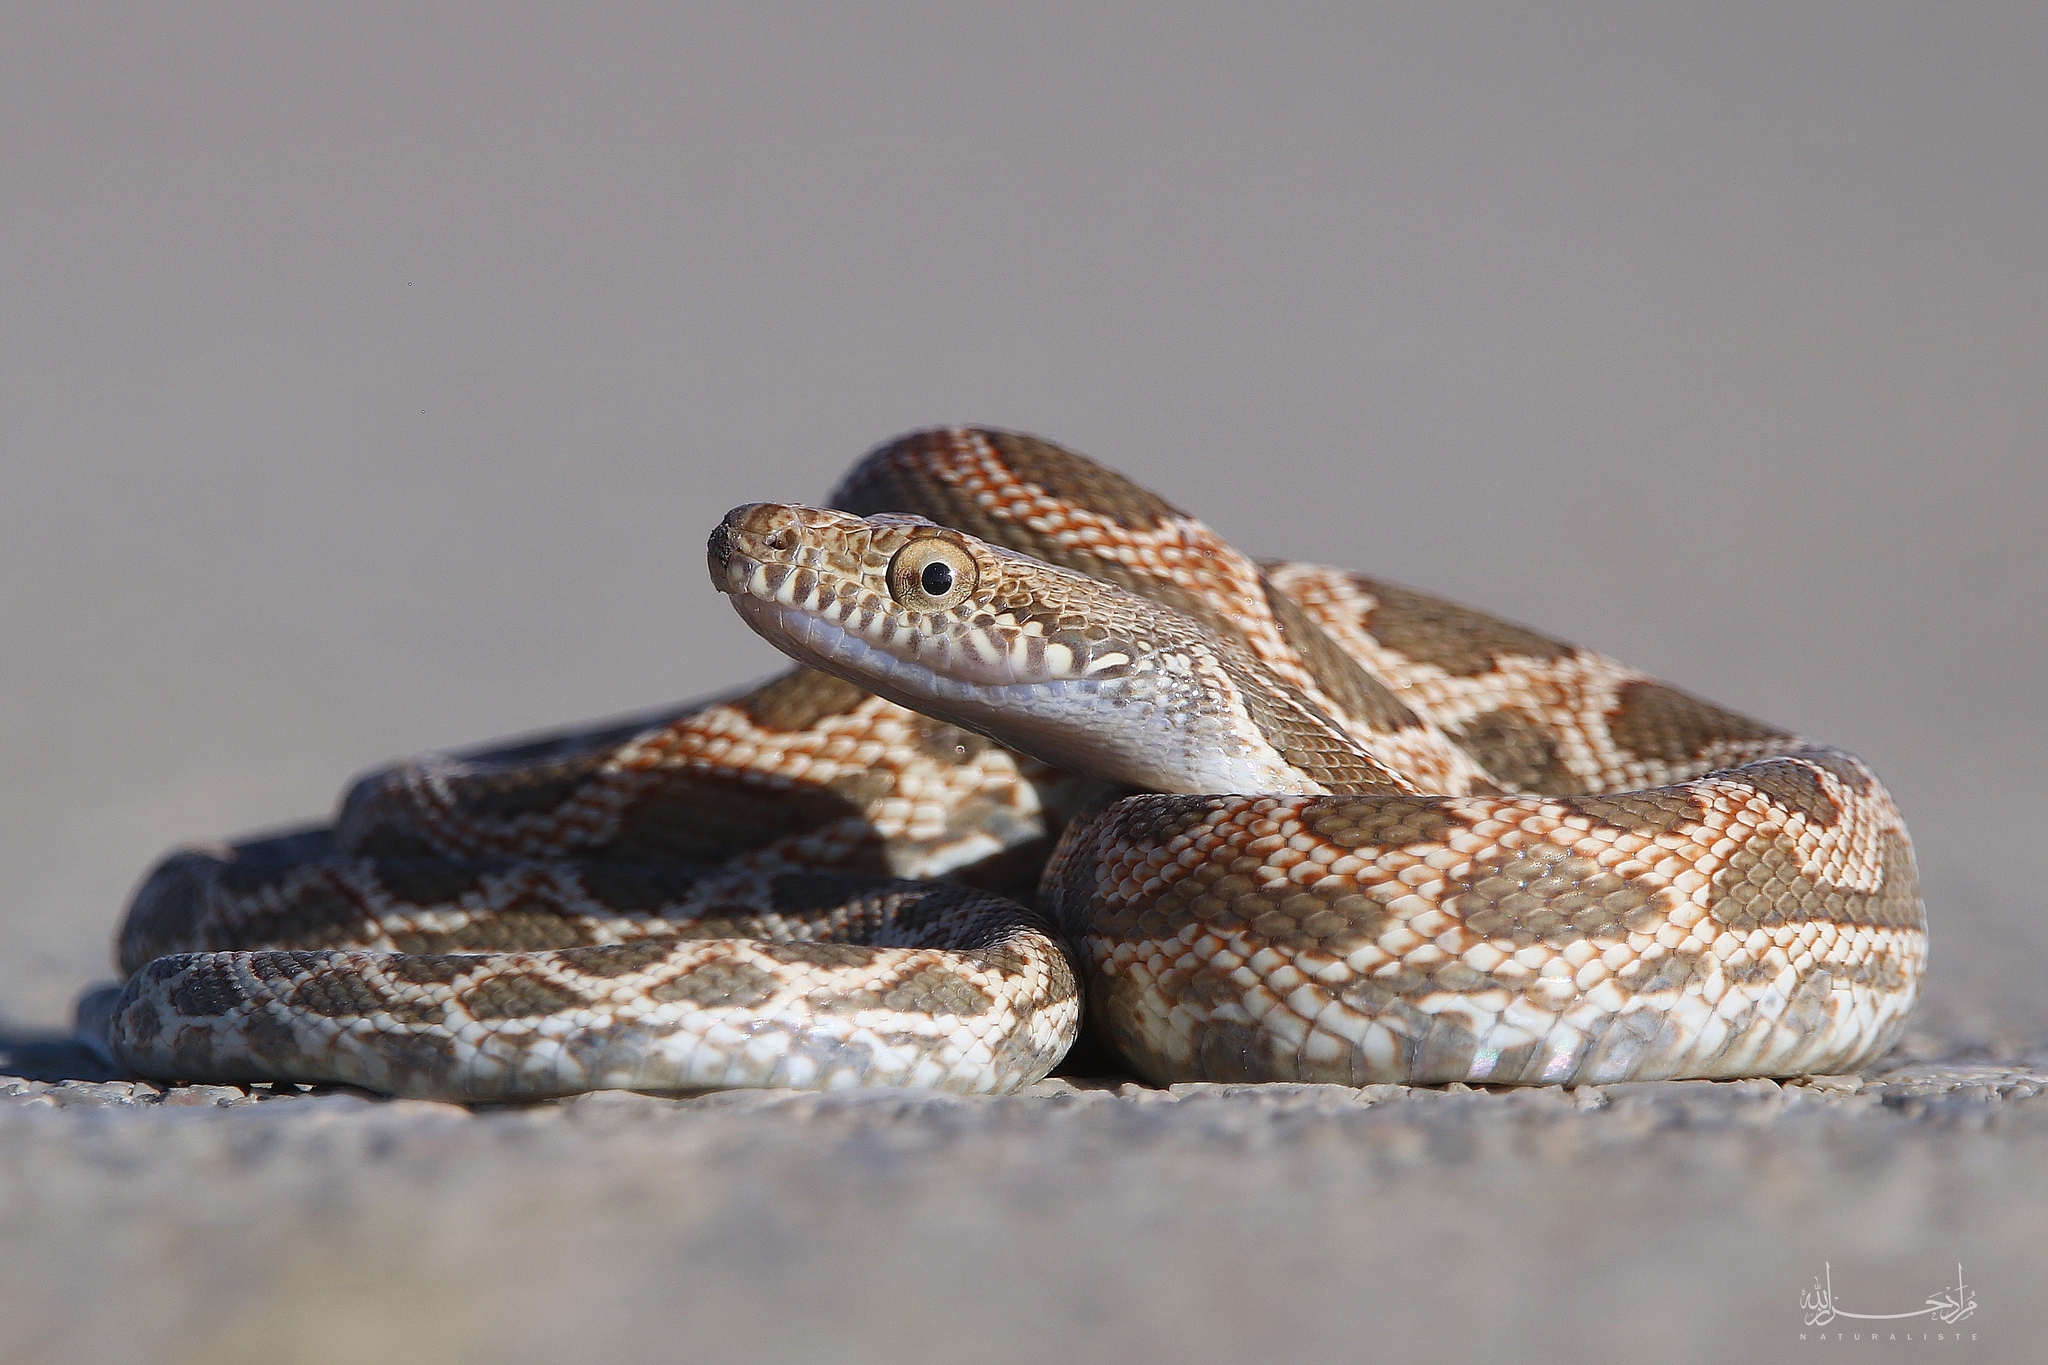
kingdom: Animalia
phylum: Chordata
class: Squamata
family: Colubridae
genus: Spalerosophis
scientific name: Spalerosophis dolichospilus
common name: Mograbin diadem snake
